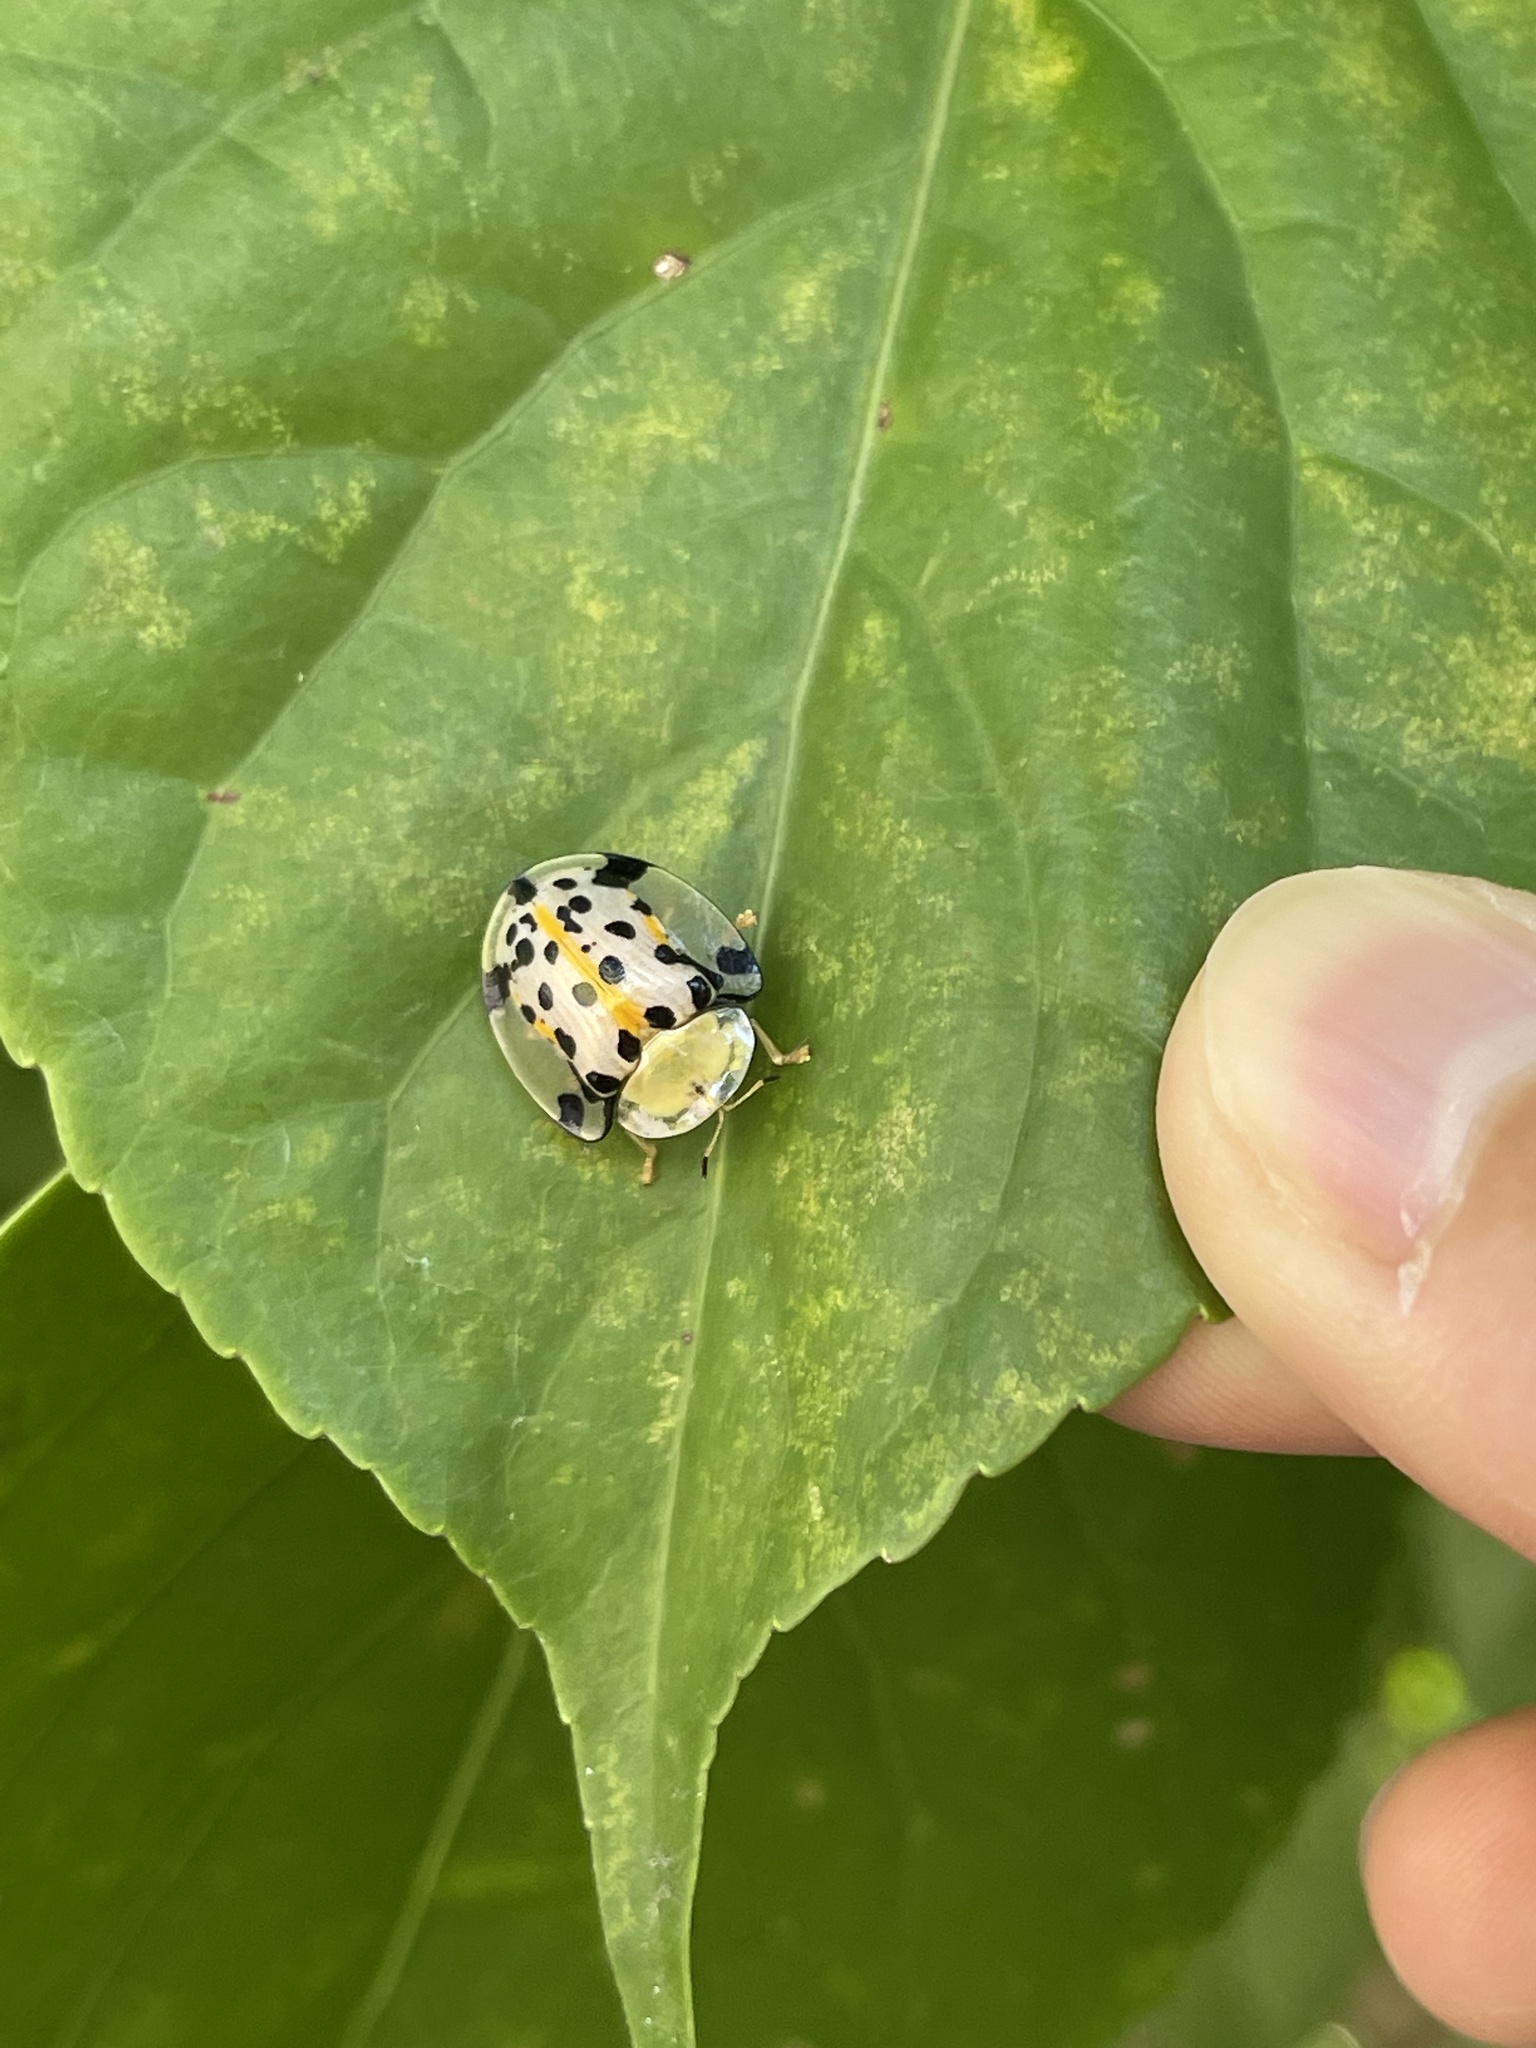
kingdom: Animalia
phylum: Arthropoda
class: Insecta
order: Coleoptera
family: Chrysomelidae
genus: Aspidimorpha
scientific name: Aspidimorpha miliaris
